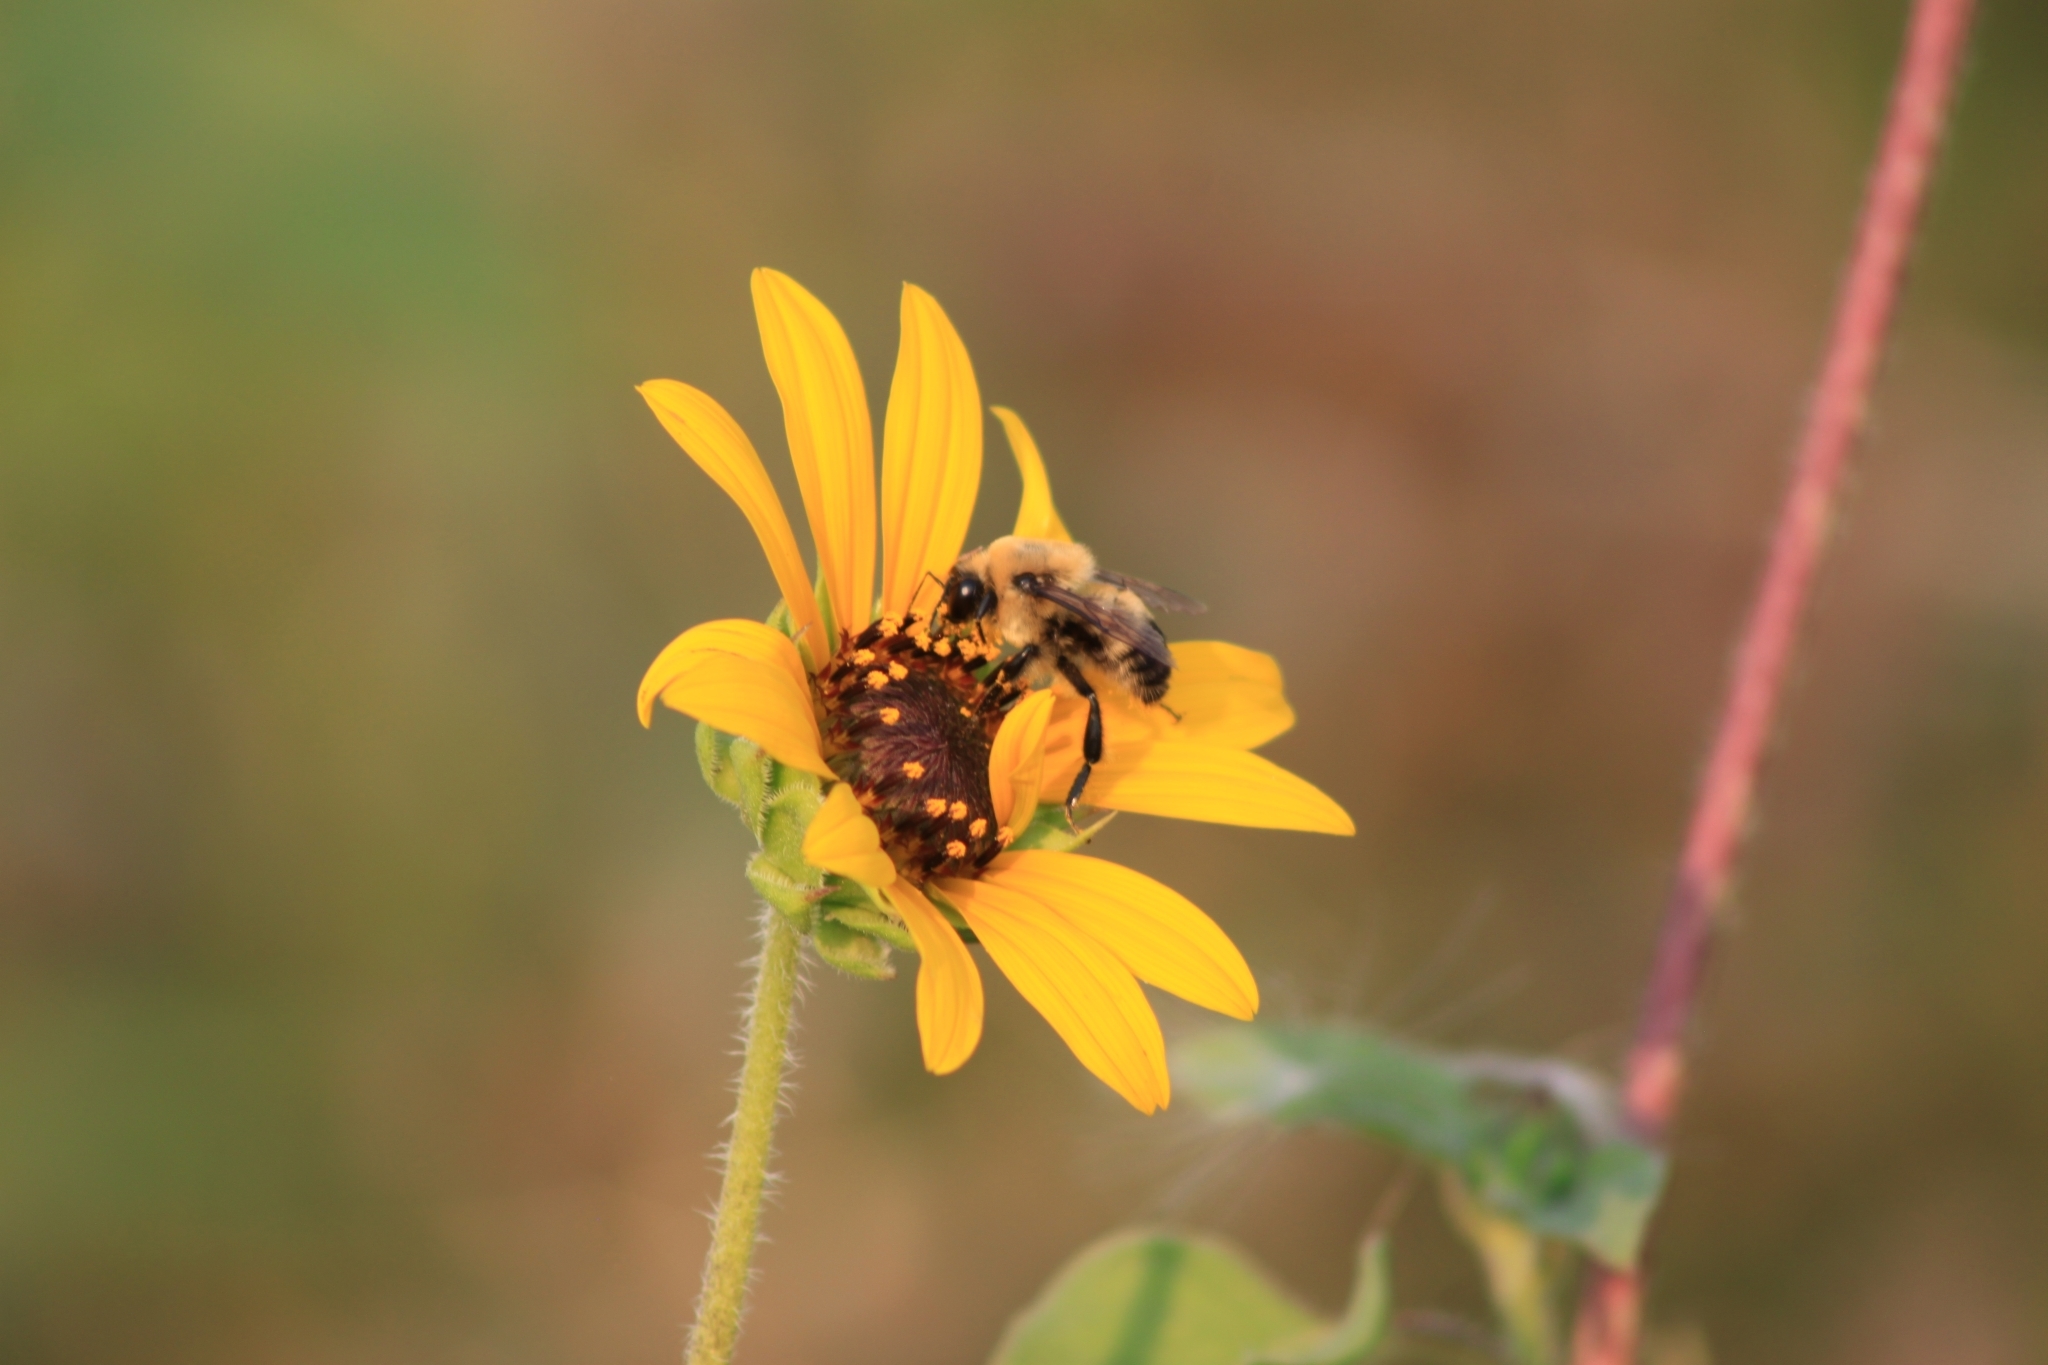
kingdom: Animalia
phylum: Arthropoda
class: Insecta
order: Hymenoptera
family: Apidae
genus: Bombus
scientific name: Bombus griseocollis
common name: Brown-belted bumble bee
